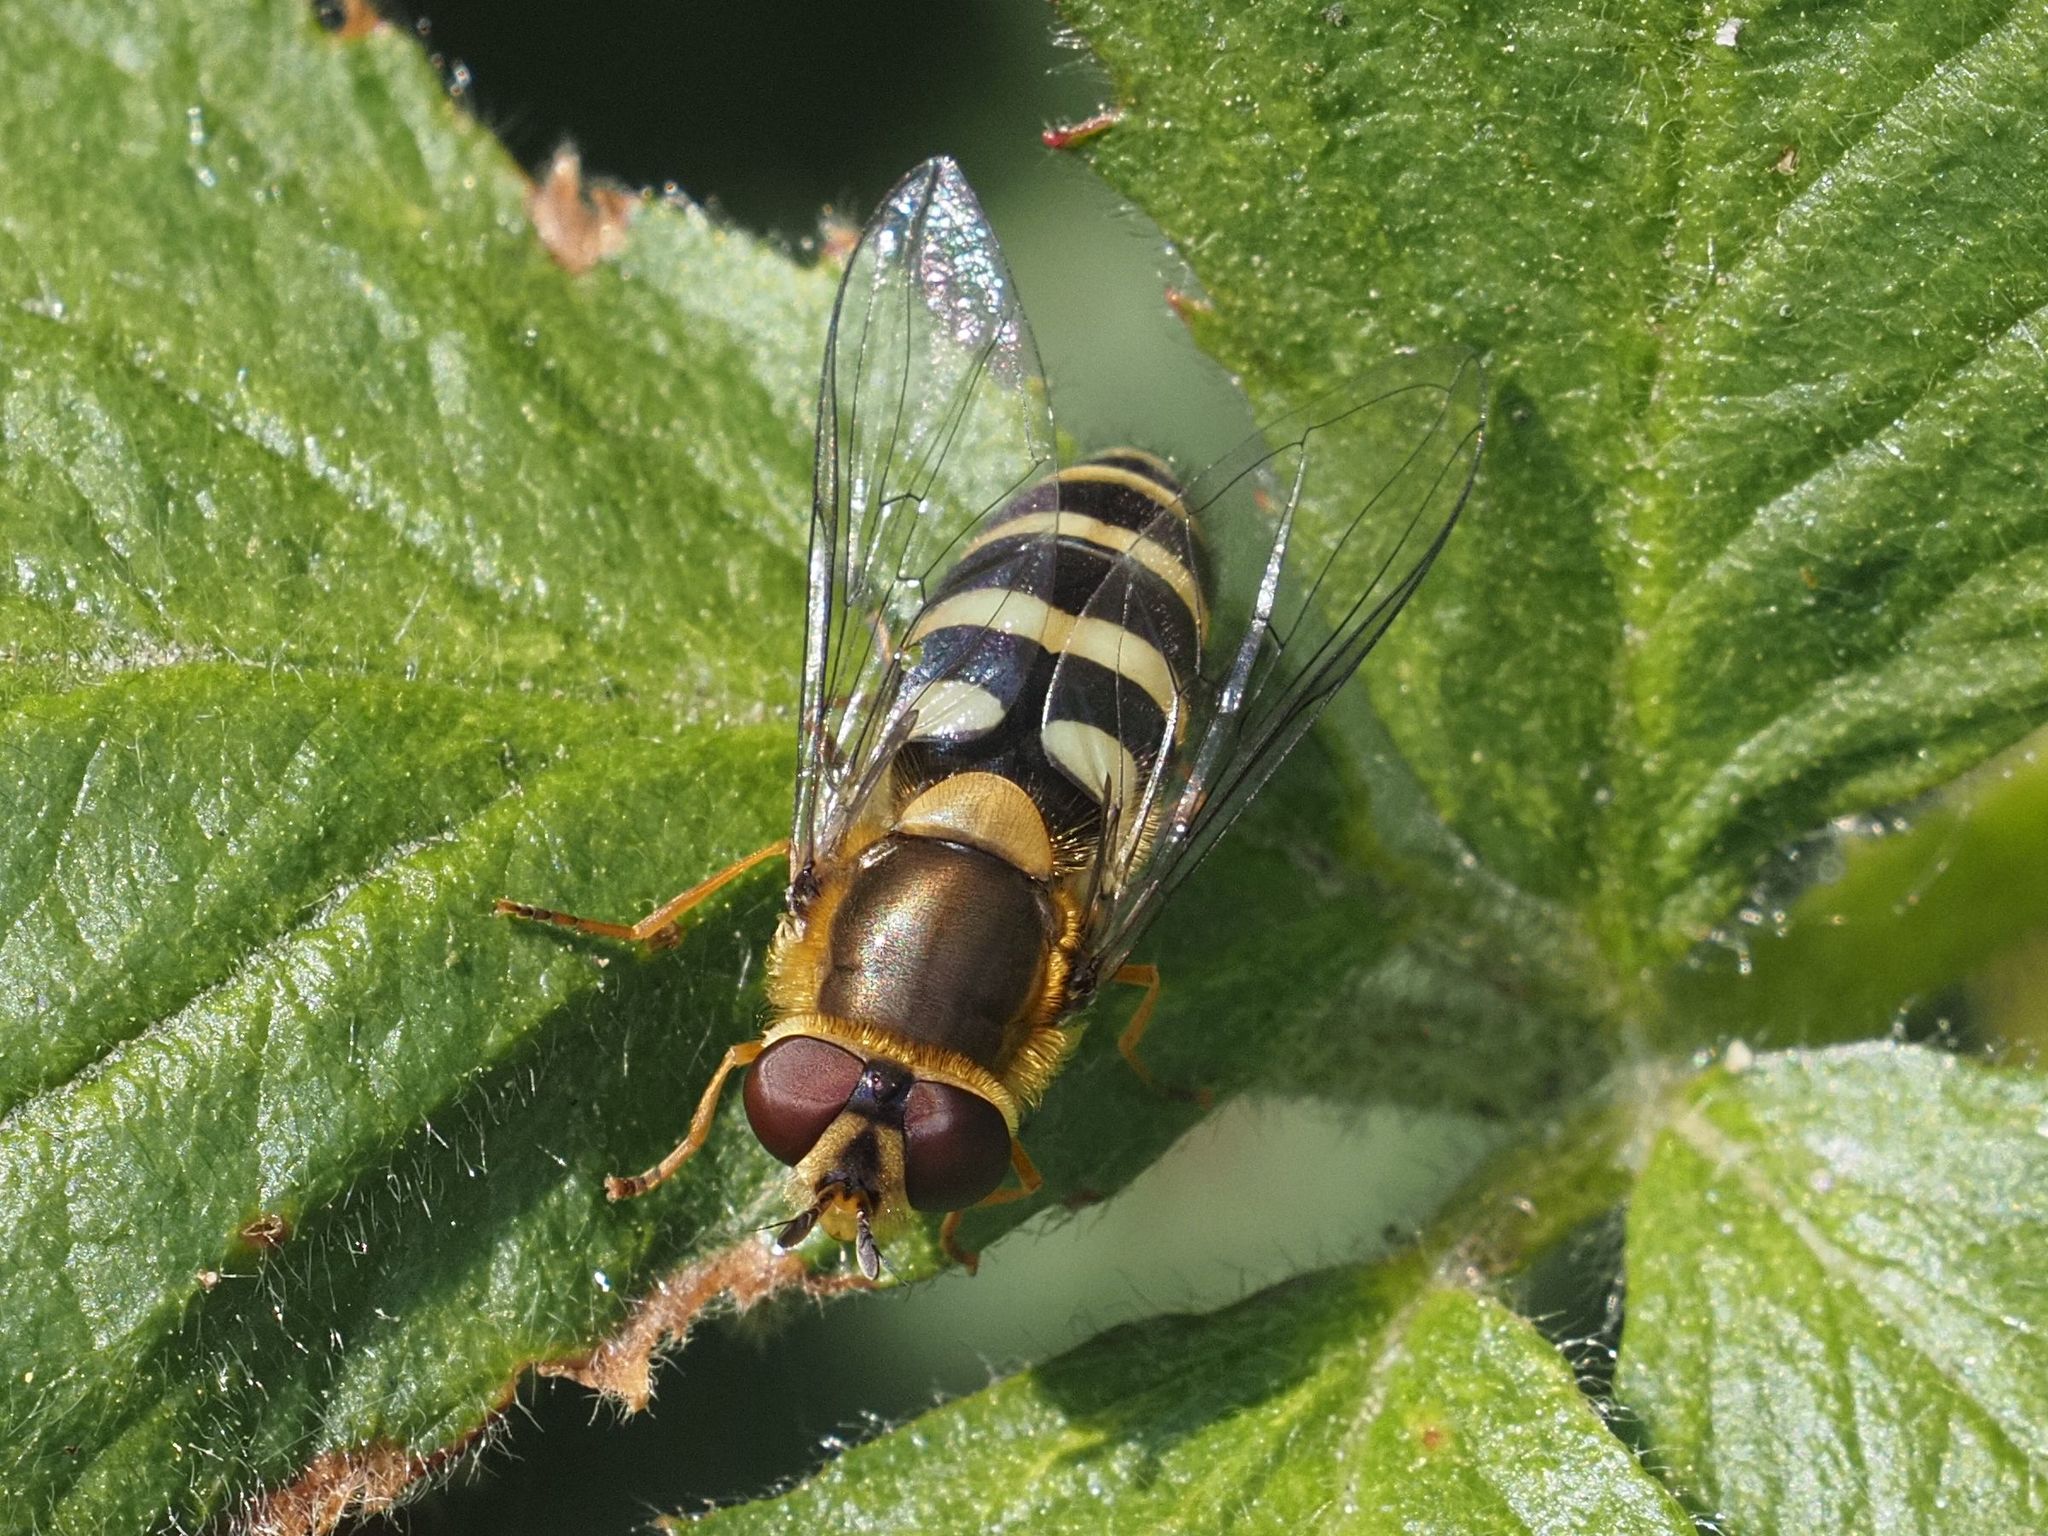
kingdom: Animalia
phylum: Arthropoda
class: Insecta
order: Diptera
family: Syrphidae
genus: Syrphus
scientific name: Syrphus
